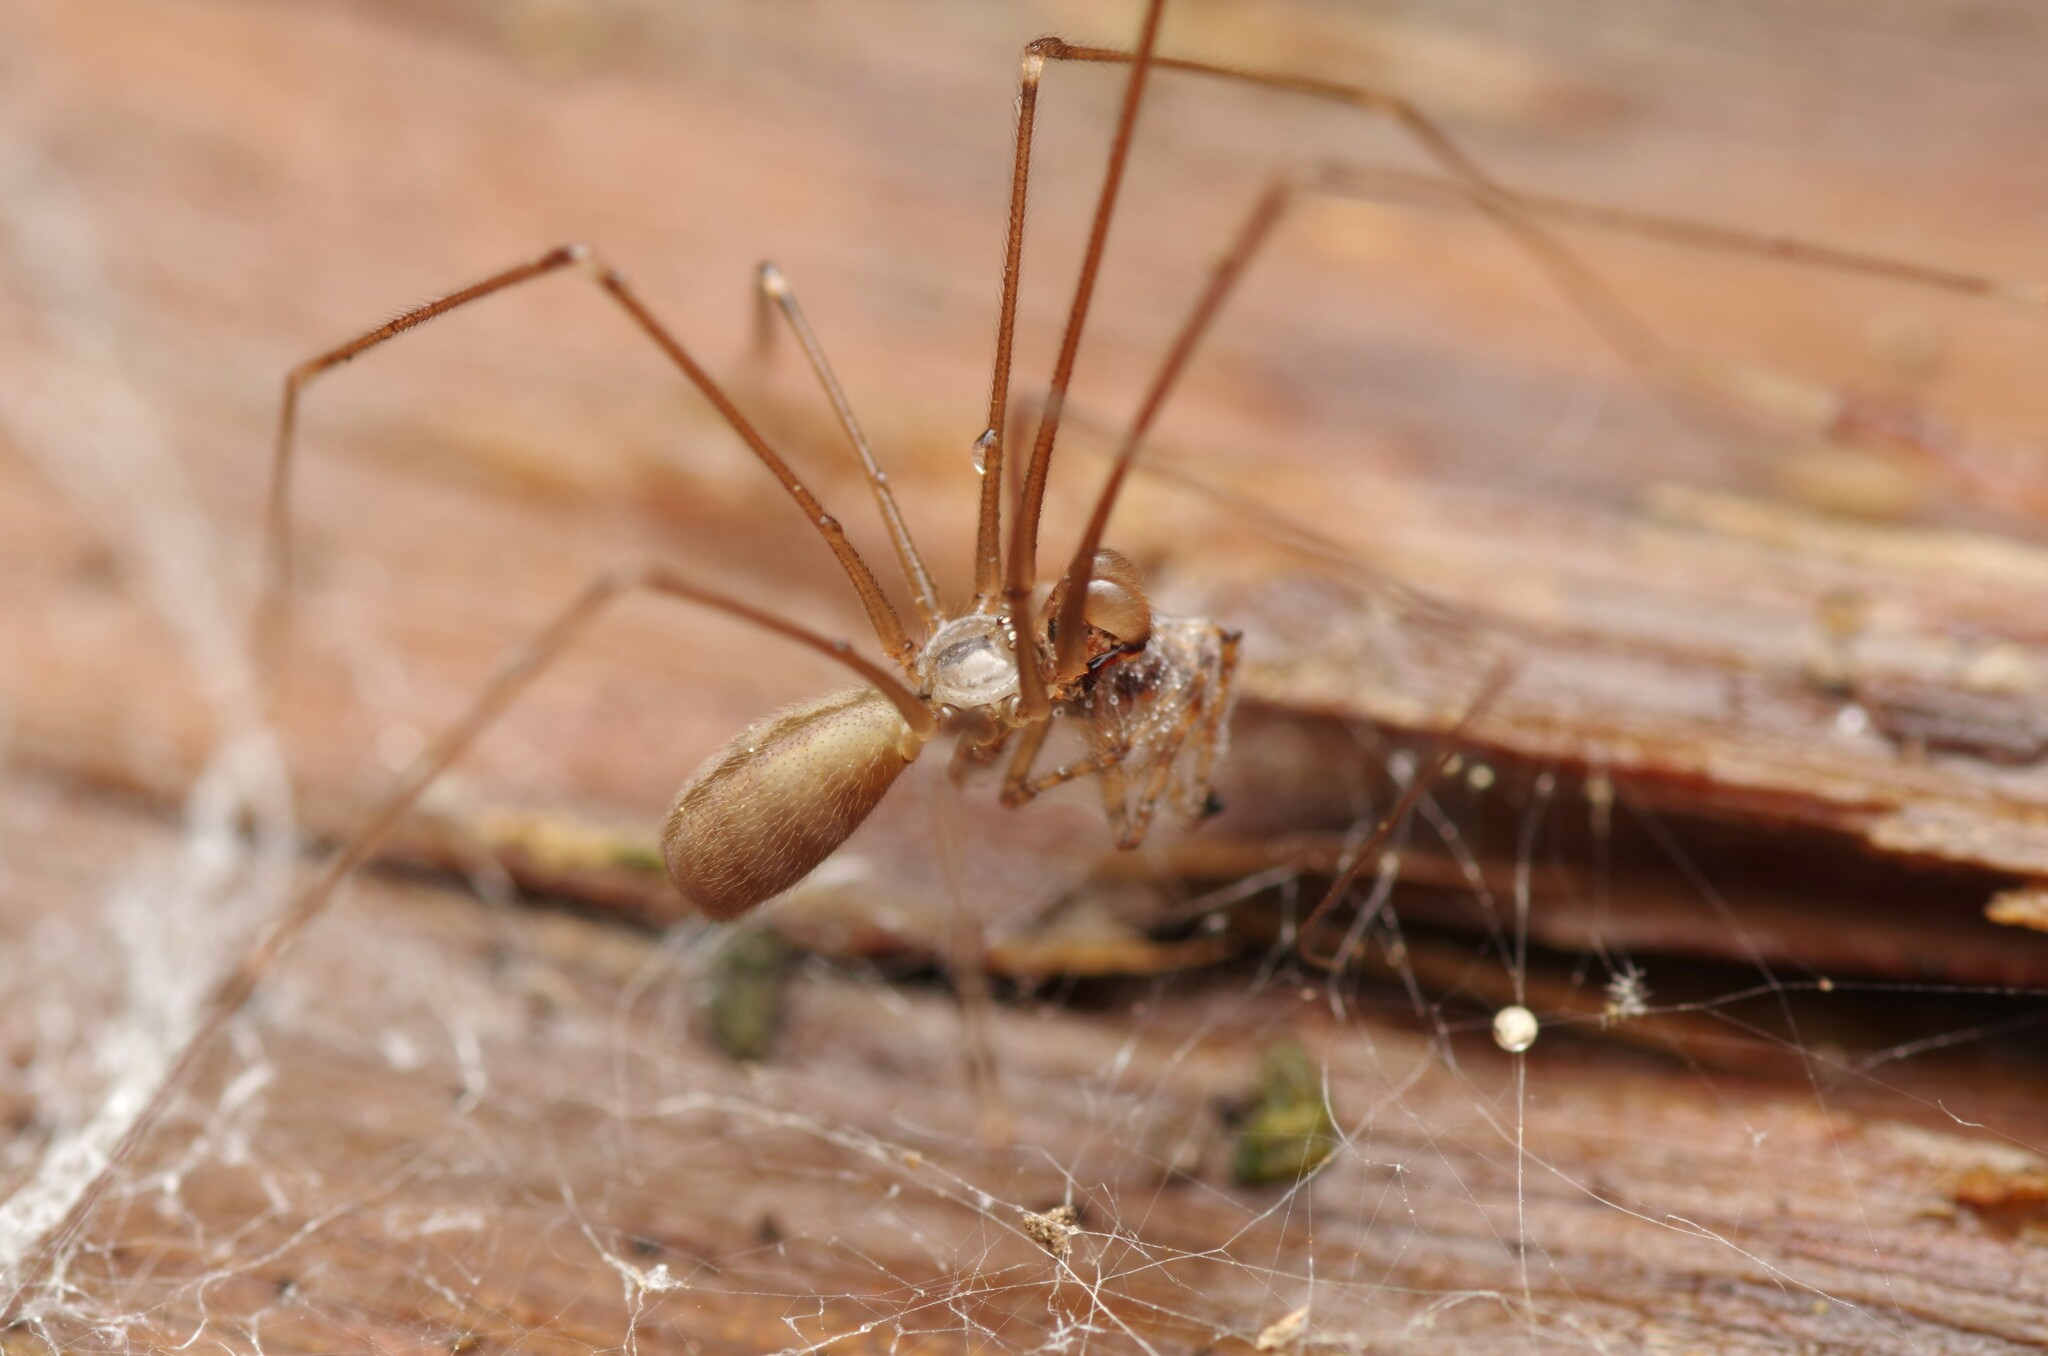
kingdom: Animalia
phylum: Arthropoda
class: Arachnida
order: Araneae
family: Pholcidae
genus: Pholcus
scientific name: Pholcus opilionoides
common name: Daddylongleg spider
